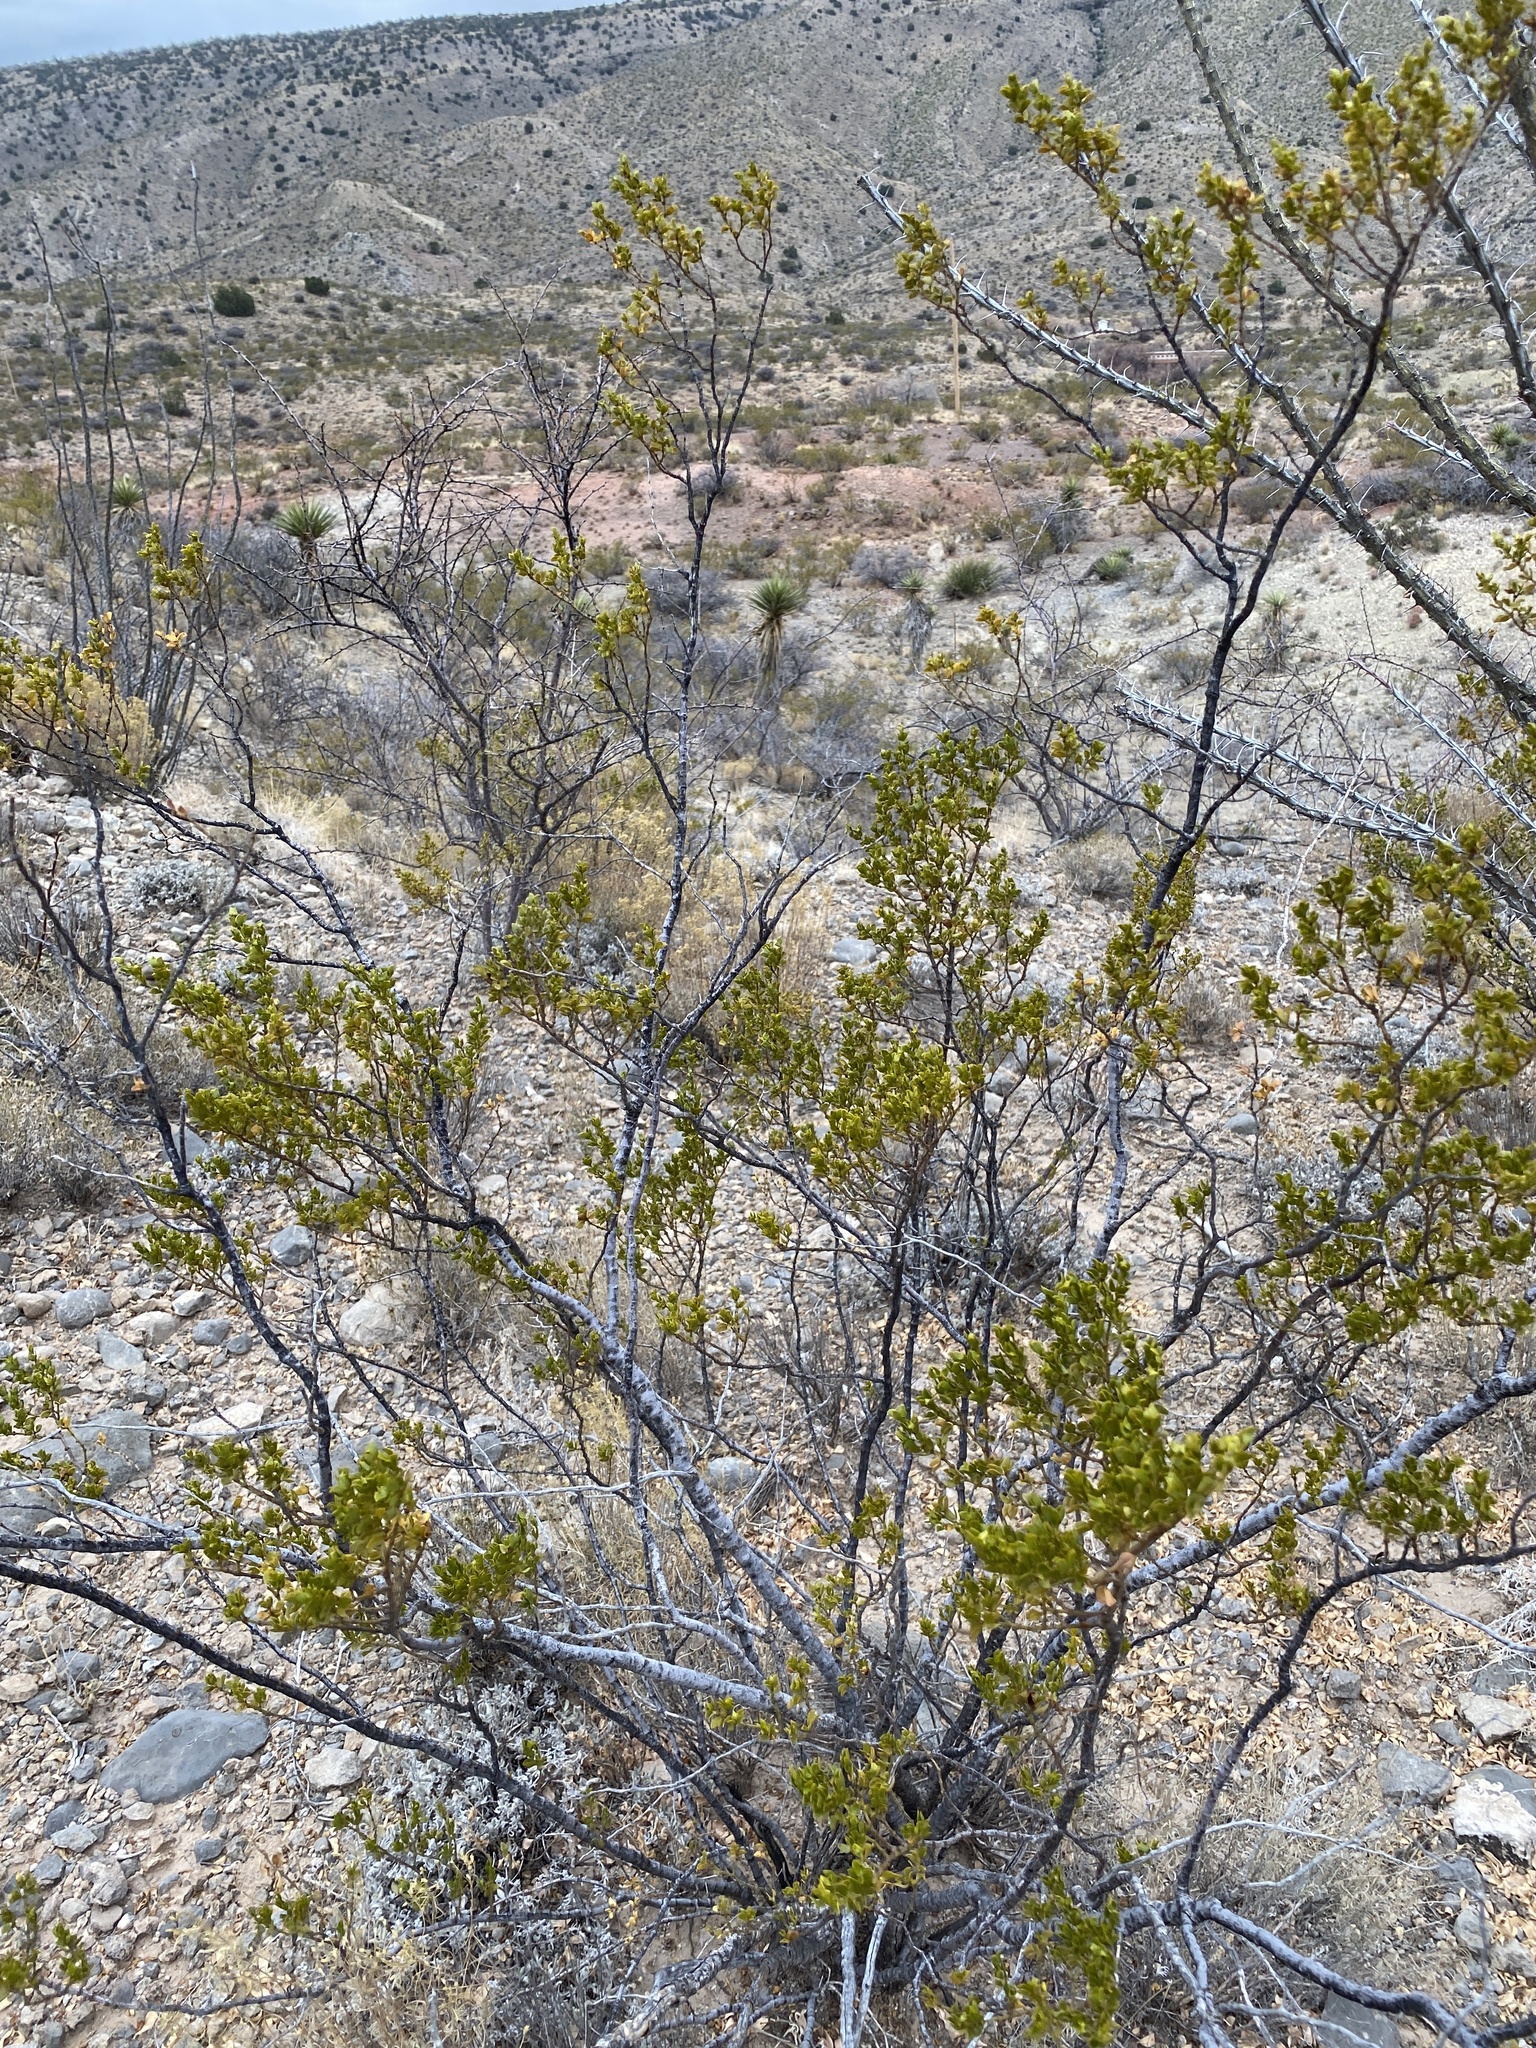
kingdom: Plantae
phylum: Tracheophyta
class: Magnoliopsida
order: Zygophyllales
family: Zygophyllaceae
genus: Larrea
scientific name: Larrea tridentata
